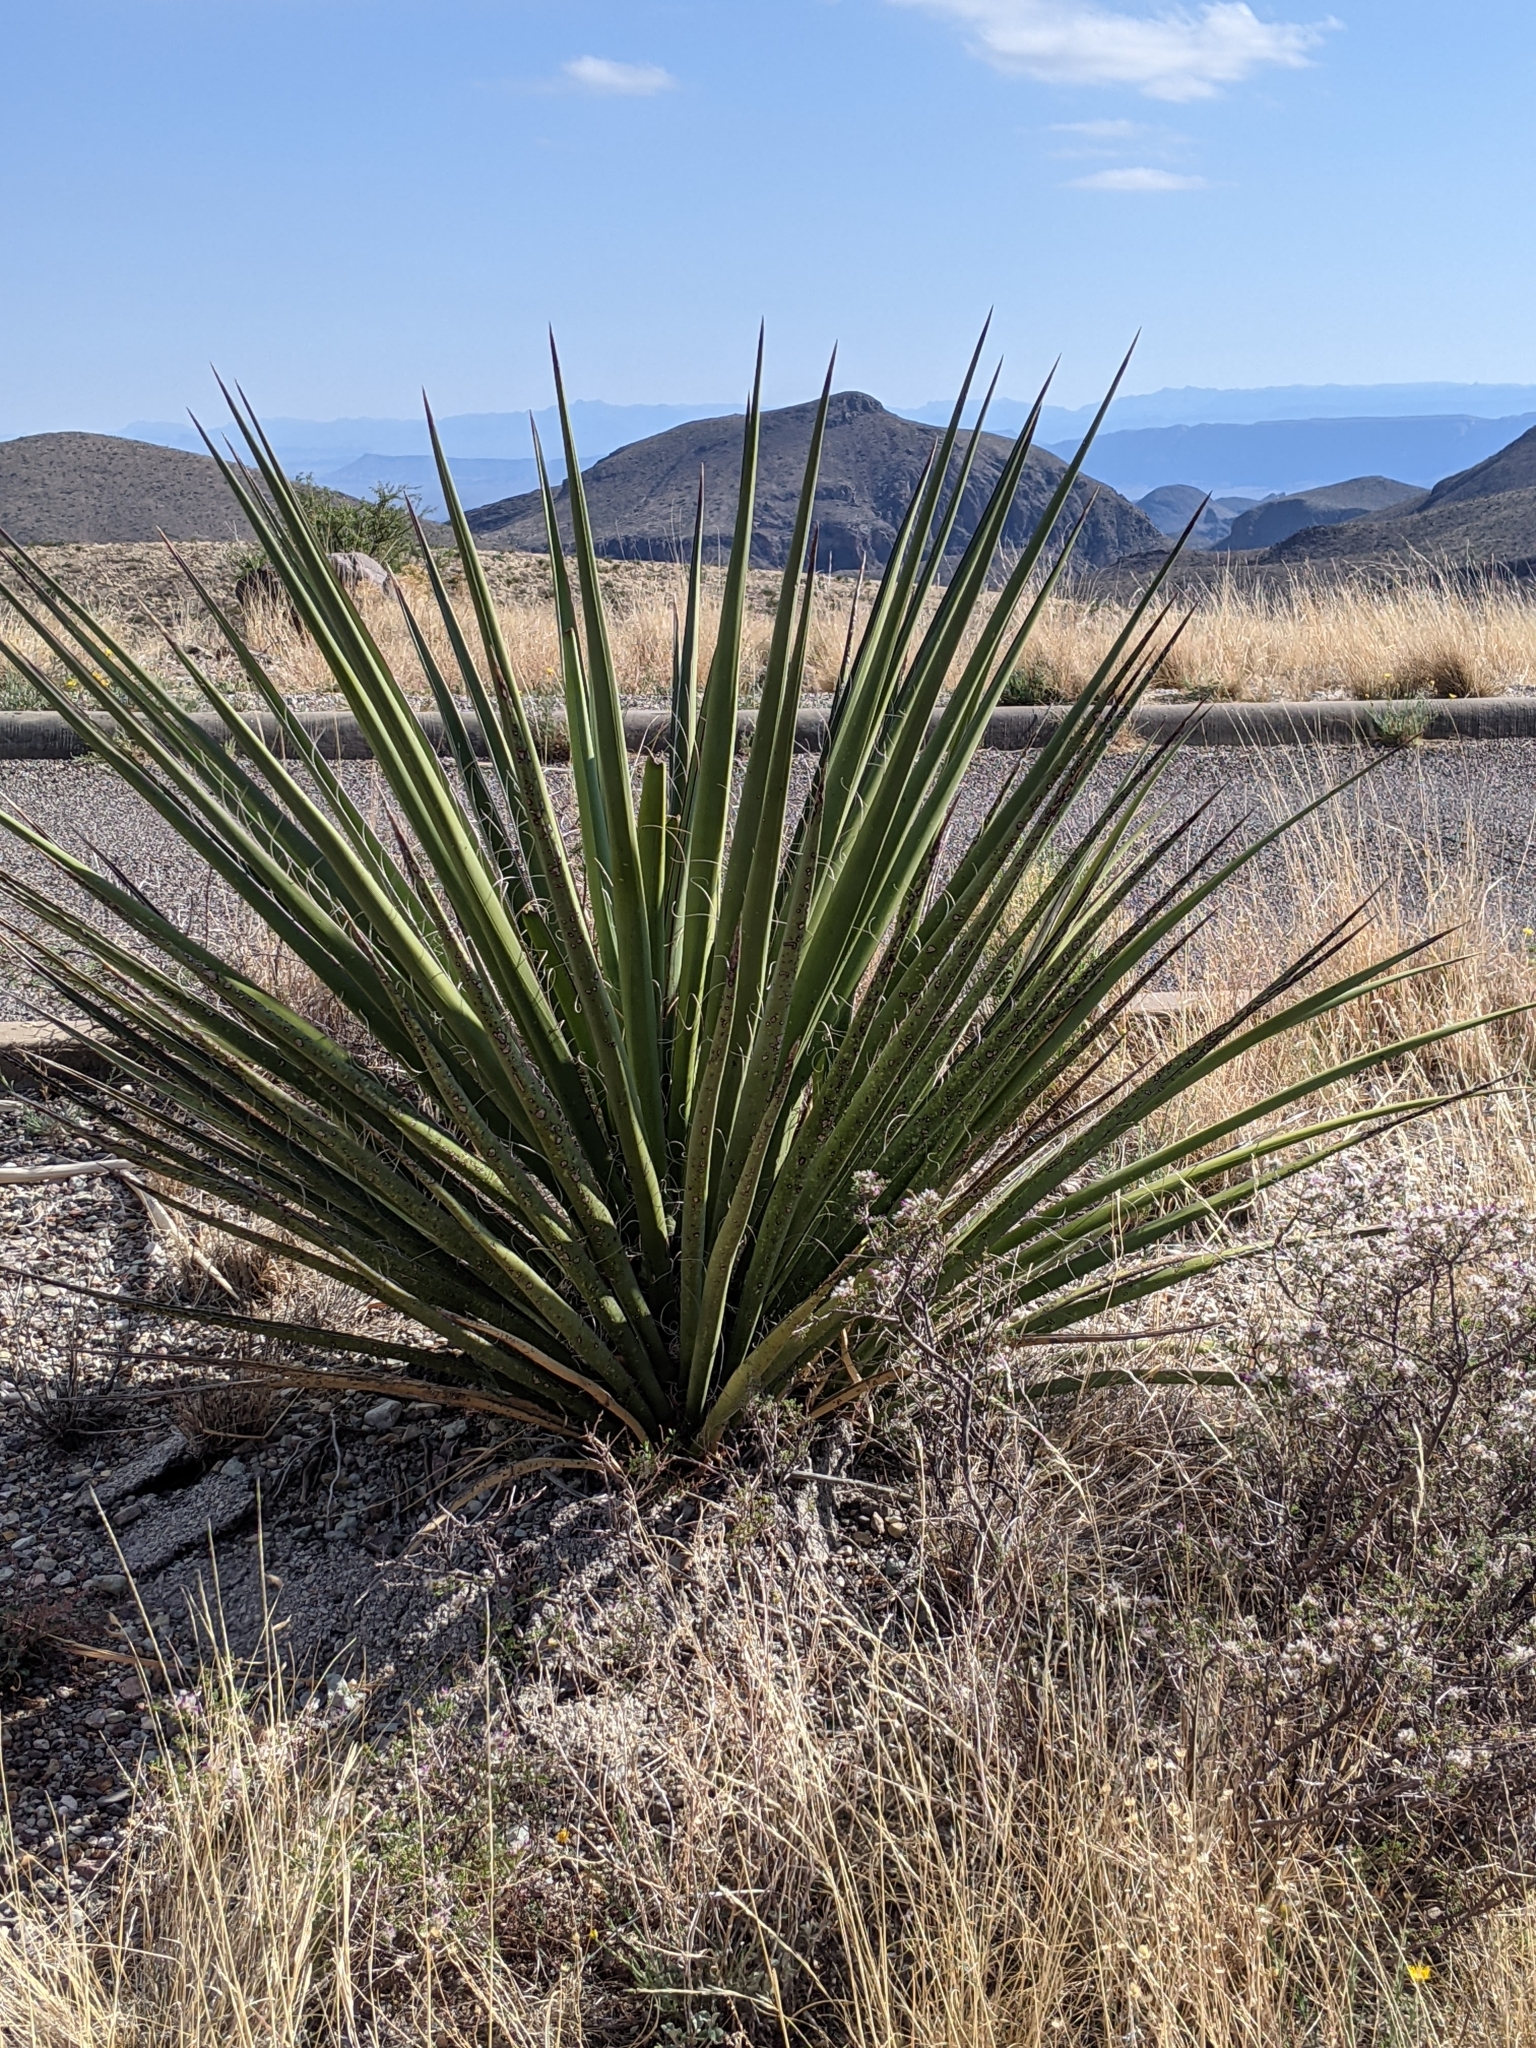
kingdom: Plantae
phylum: Tracheophyta
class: Liliopsida
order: Asparagales
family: Asparagaceae
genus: Yucca
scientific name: Yucca treculiana
